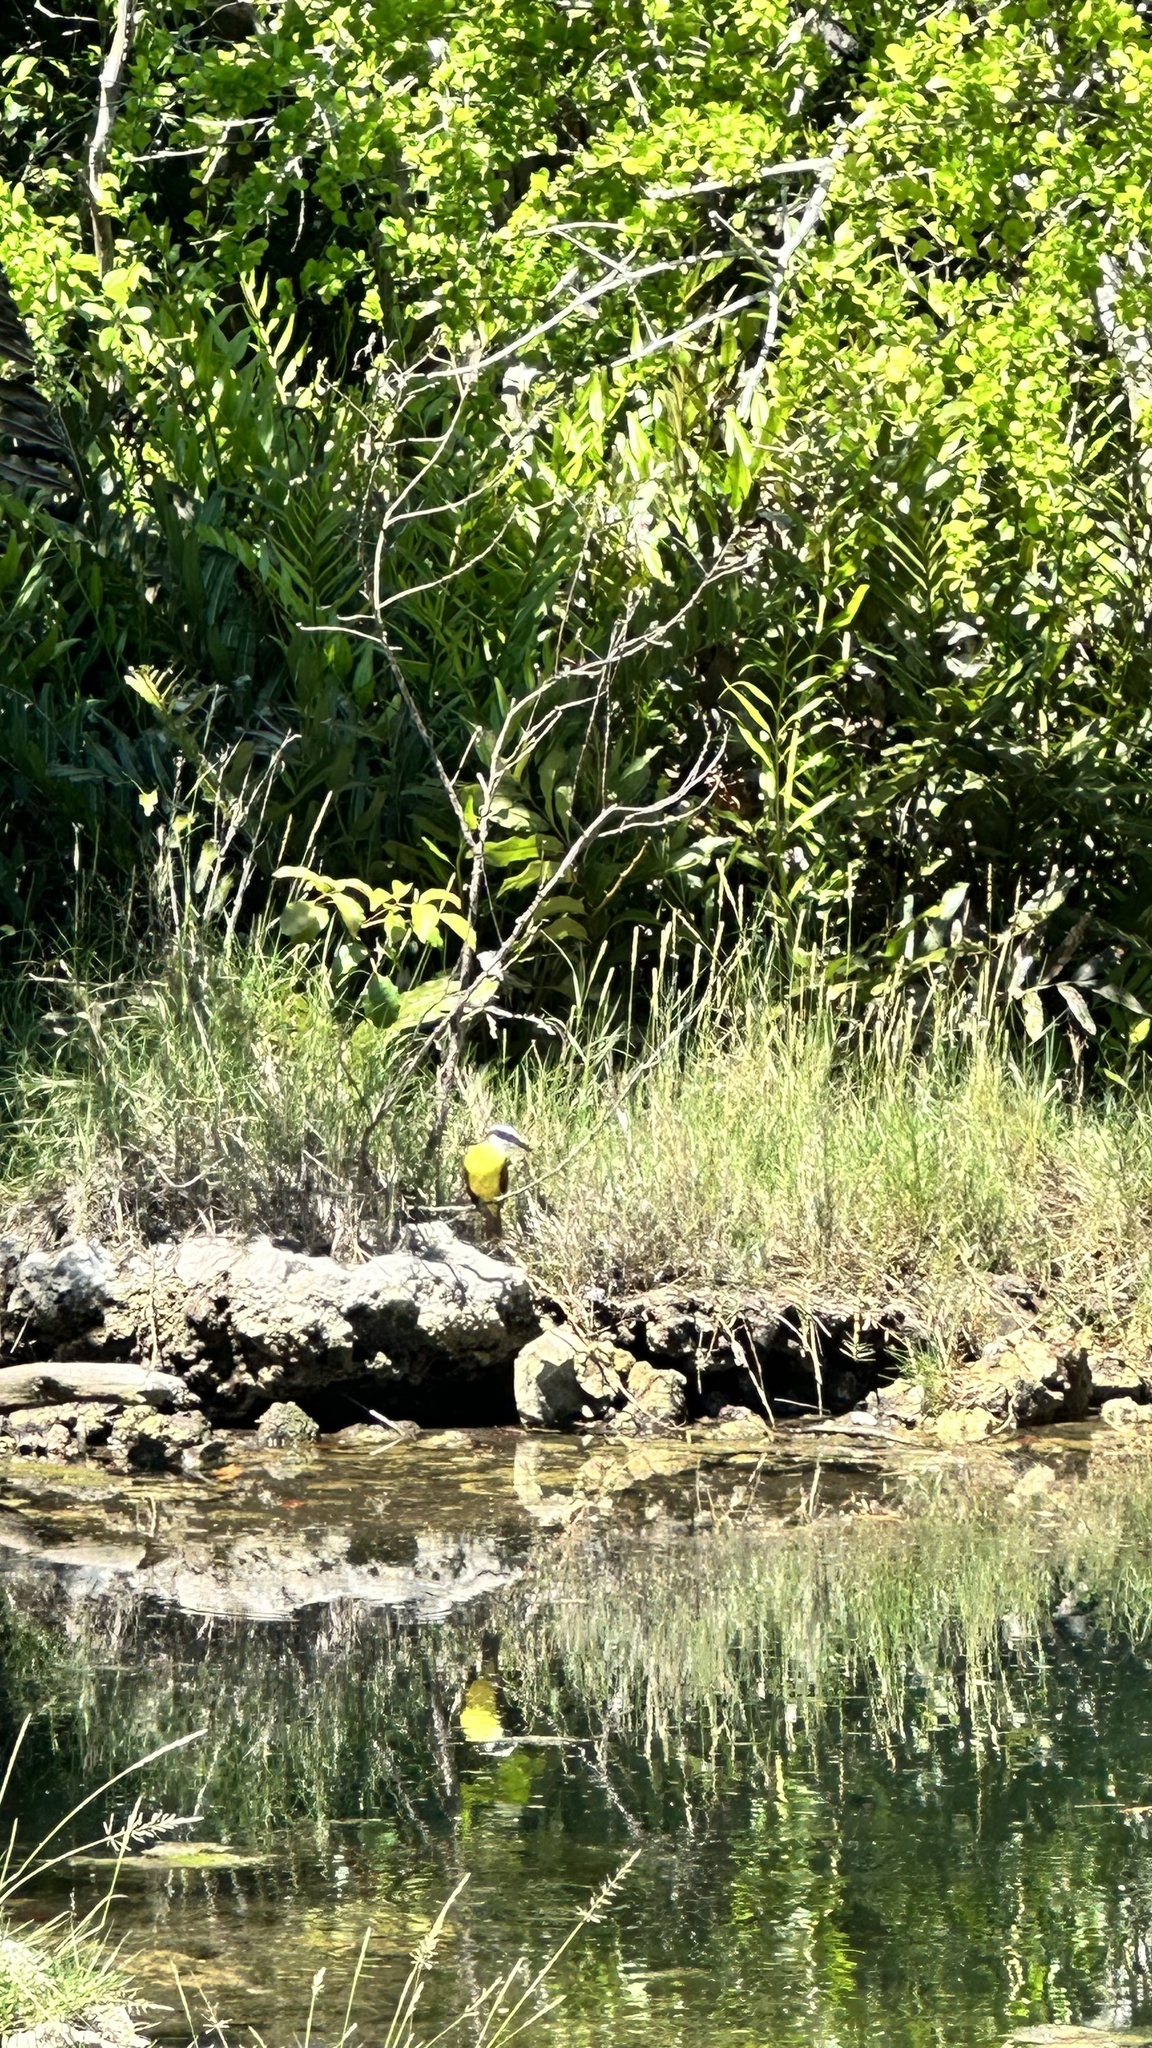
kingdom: Animalia
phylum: Chordata
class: Aves
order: Passeriformes
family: Tyrannidae
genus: Pitangus
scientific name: Pitangus sulphuratus
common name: Great kiskadee
